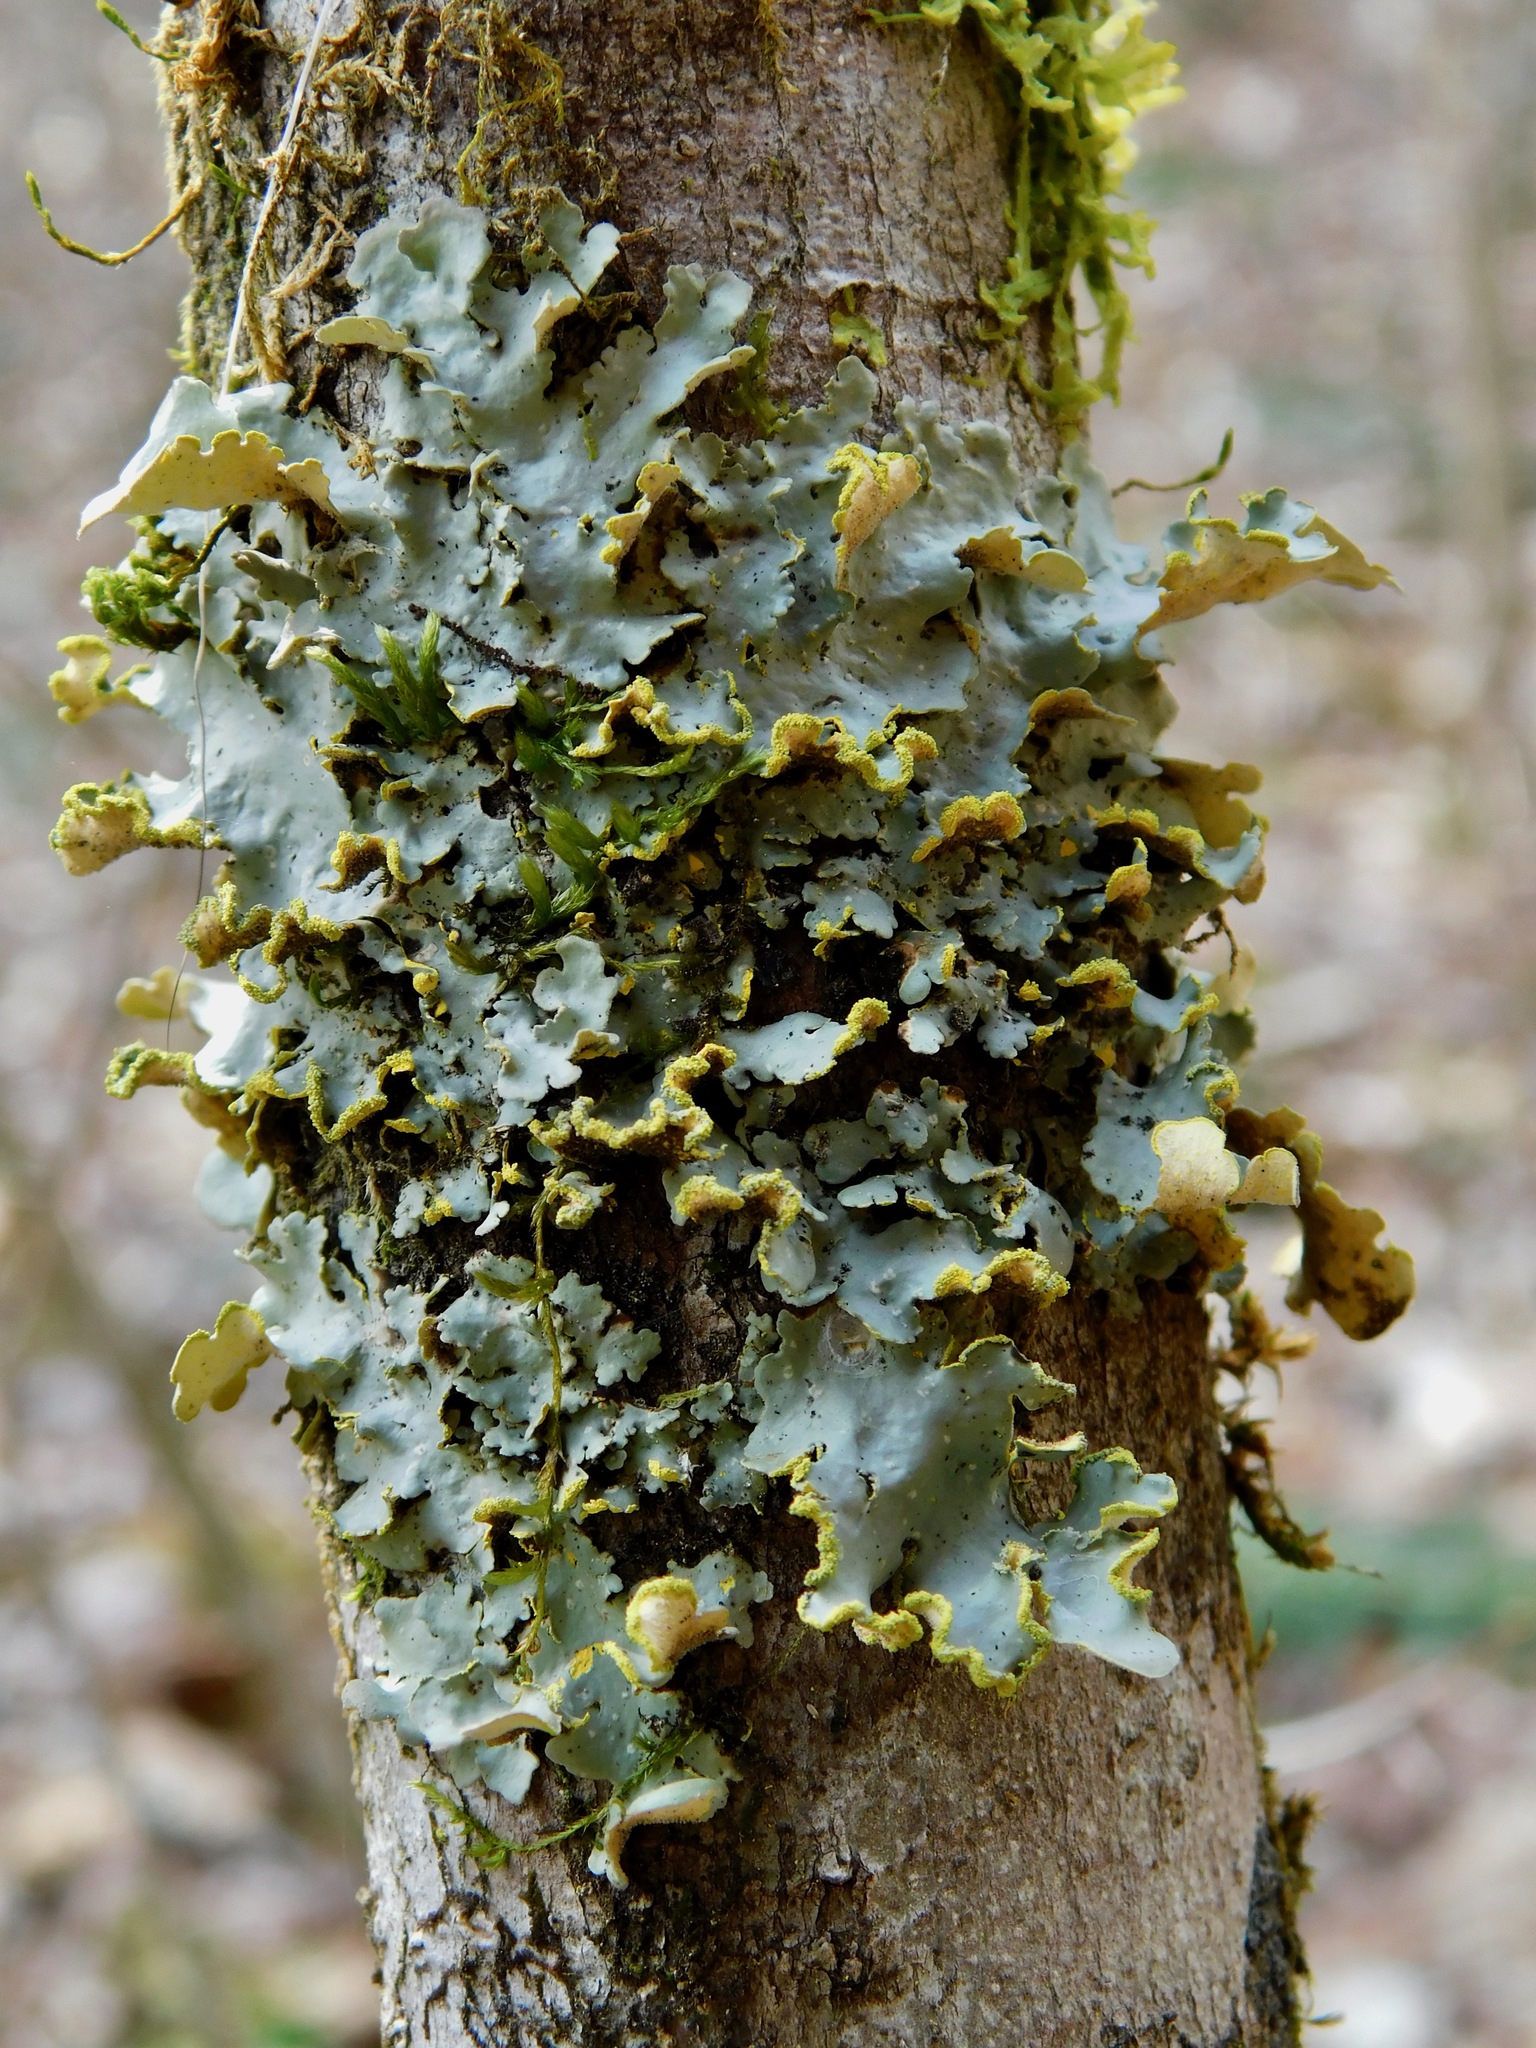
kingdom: Fungi
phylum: Ascomycota
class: Lecanoromycetes
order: Peltigerales
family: Lobariaceae
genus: Pseudocyphellaria
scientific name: Pseudocyphellaria aurata
